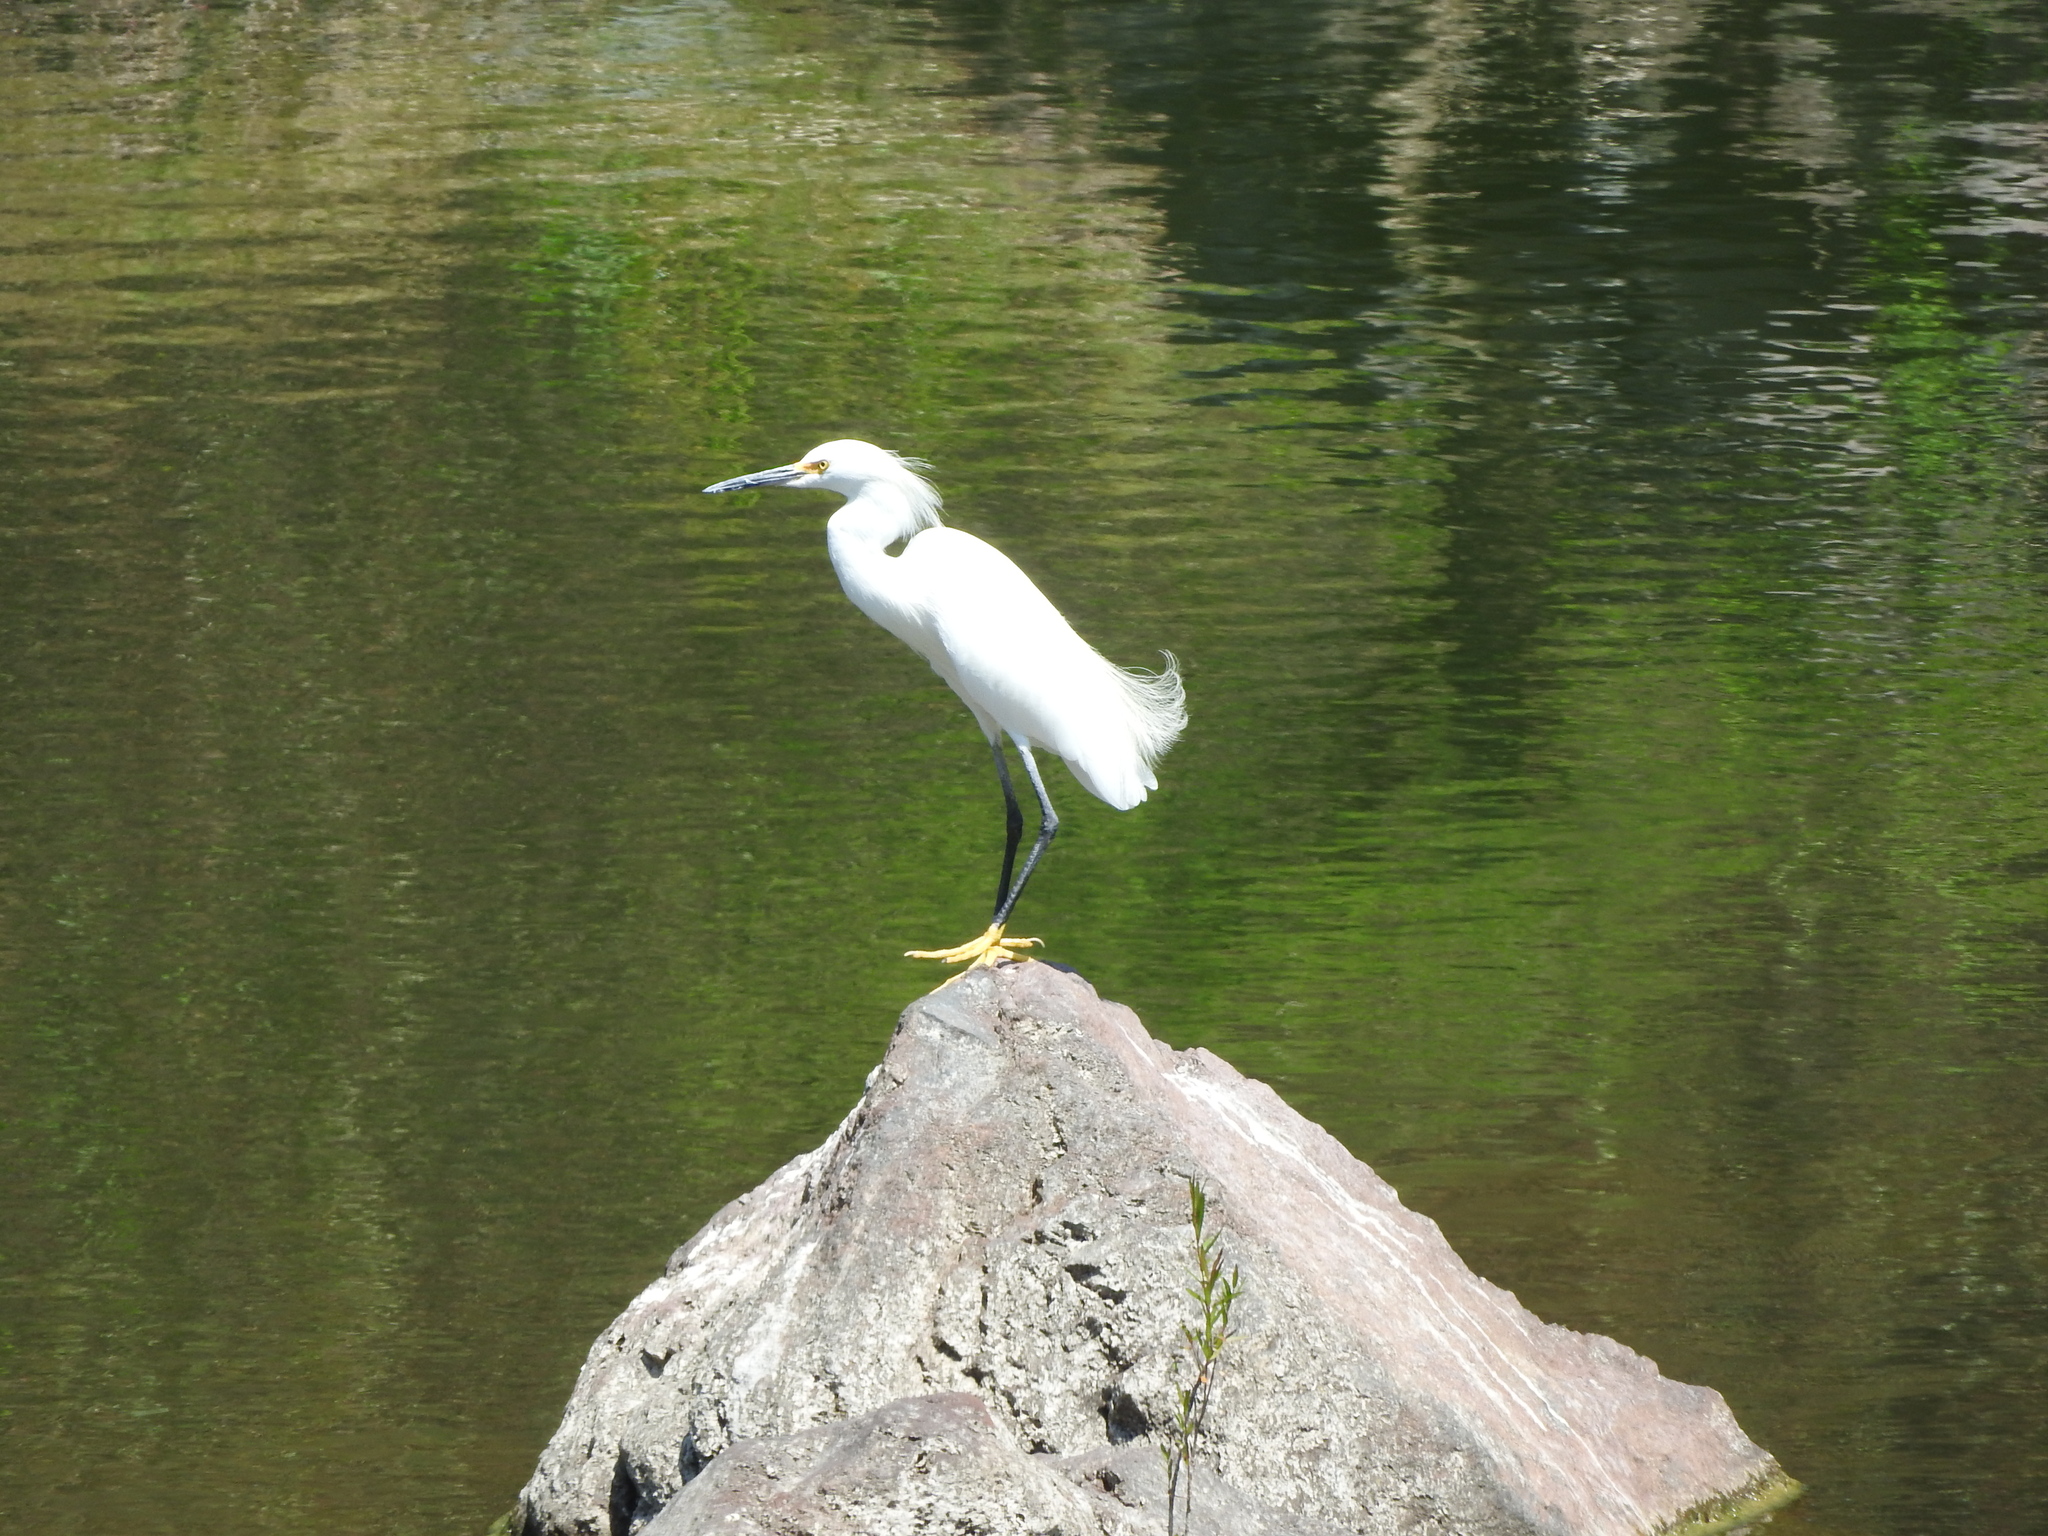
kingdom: Animalia
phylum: Chordata
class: Aves
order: Pelecaniformes
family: Ardeidae
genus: Egretta
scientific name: Egretta thula
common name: Snowy egret
